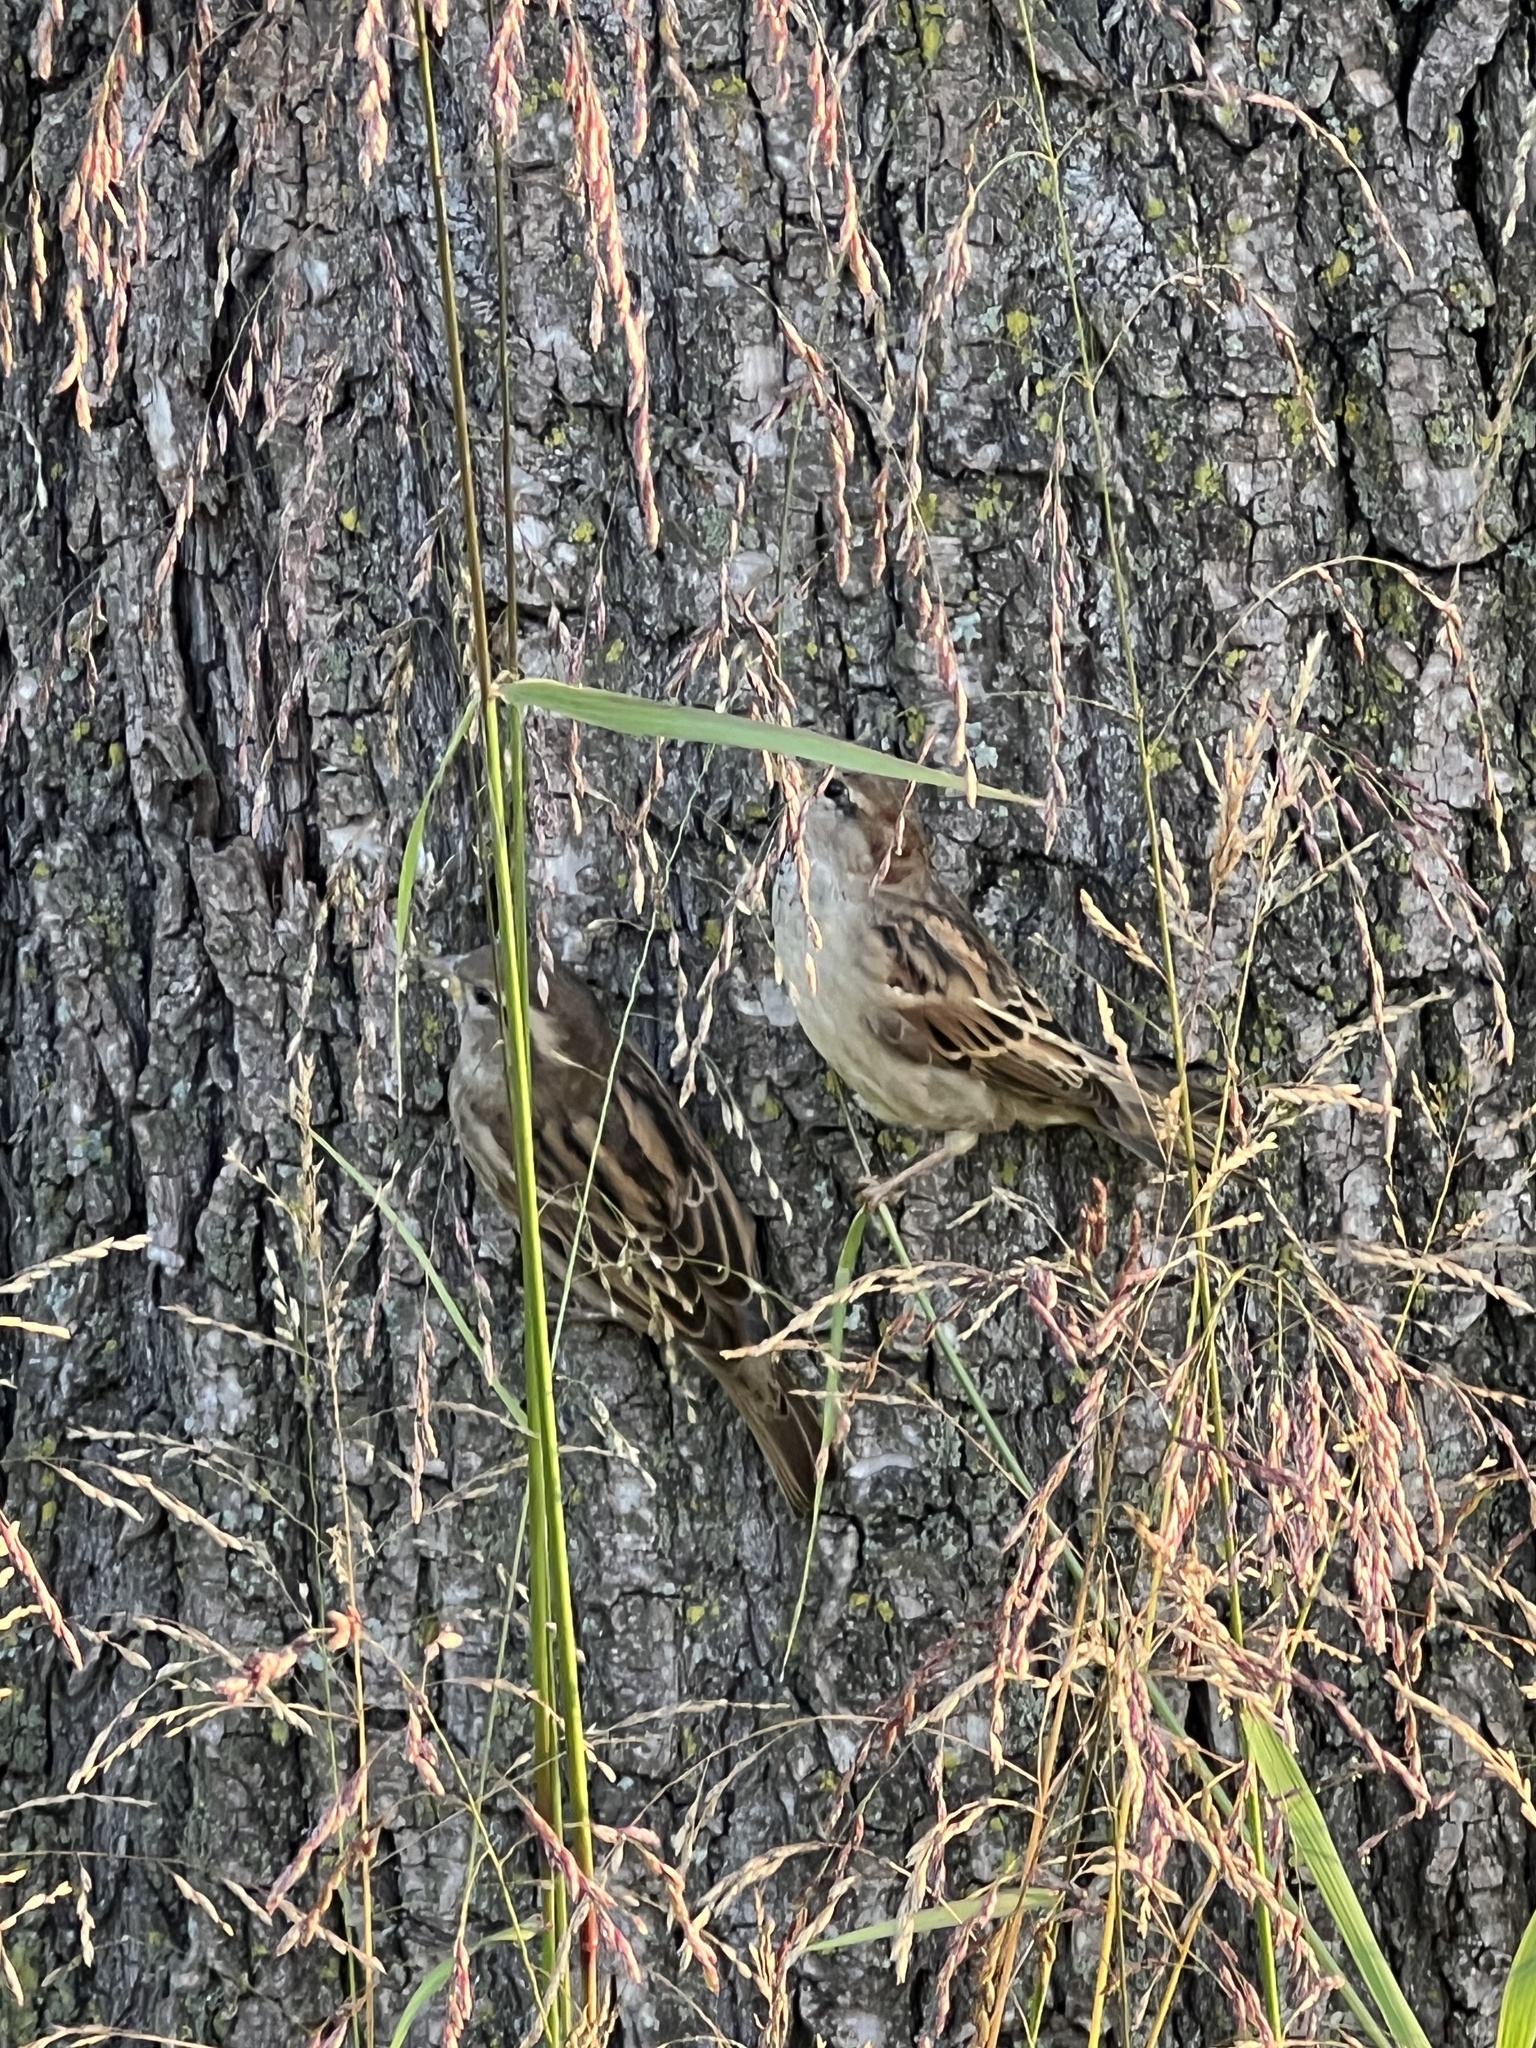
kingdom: Animalia
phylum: Chordata
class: Aves
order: Passeriformes
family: Passeridae
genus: Passer
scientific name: Passer domesticus
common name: House sparrow
